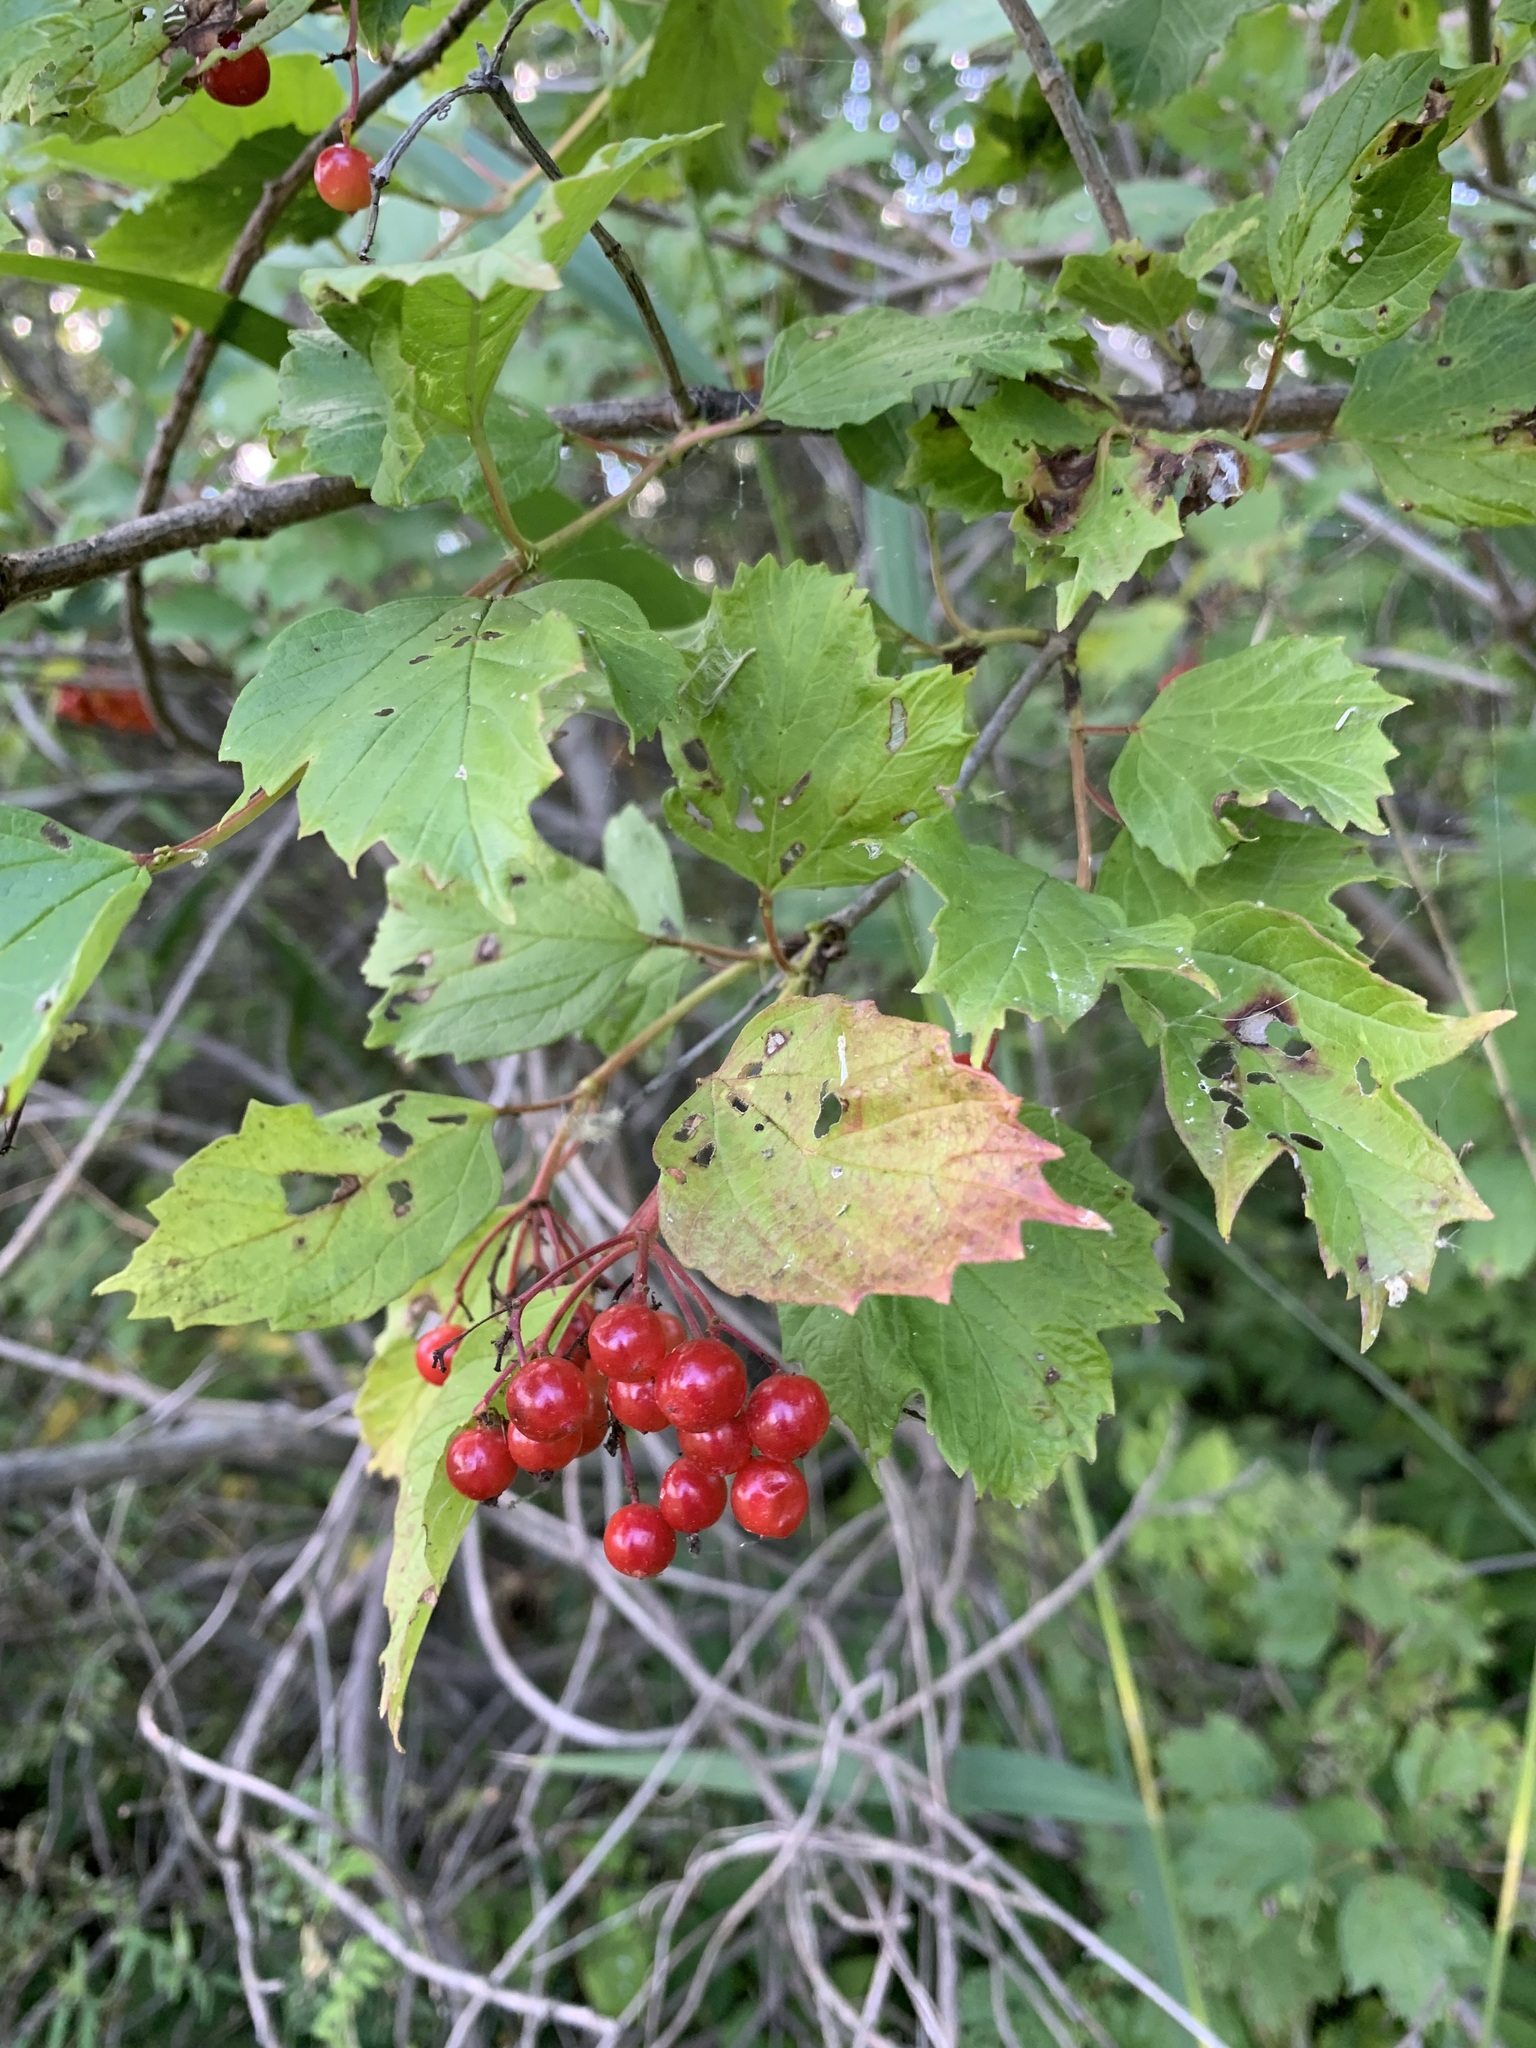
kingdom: Plantae
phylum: Tracheophyta
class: Magnoliopsida
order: Dipsacales
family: Viburnaceae
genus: Viburnum
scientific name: Viburnum opulus
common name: Guelder-rose
